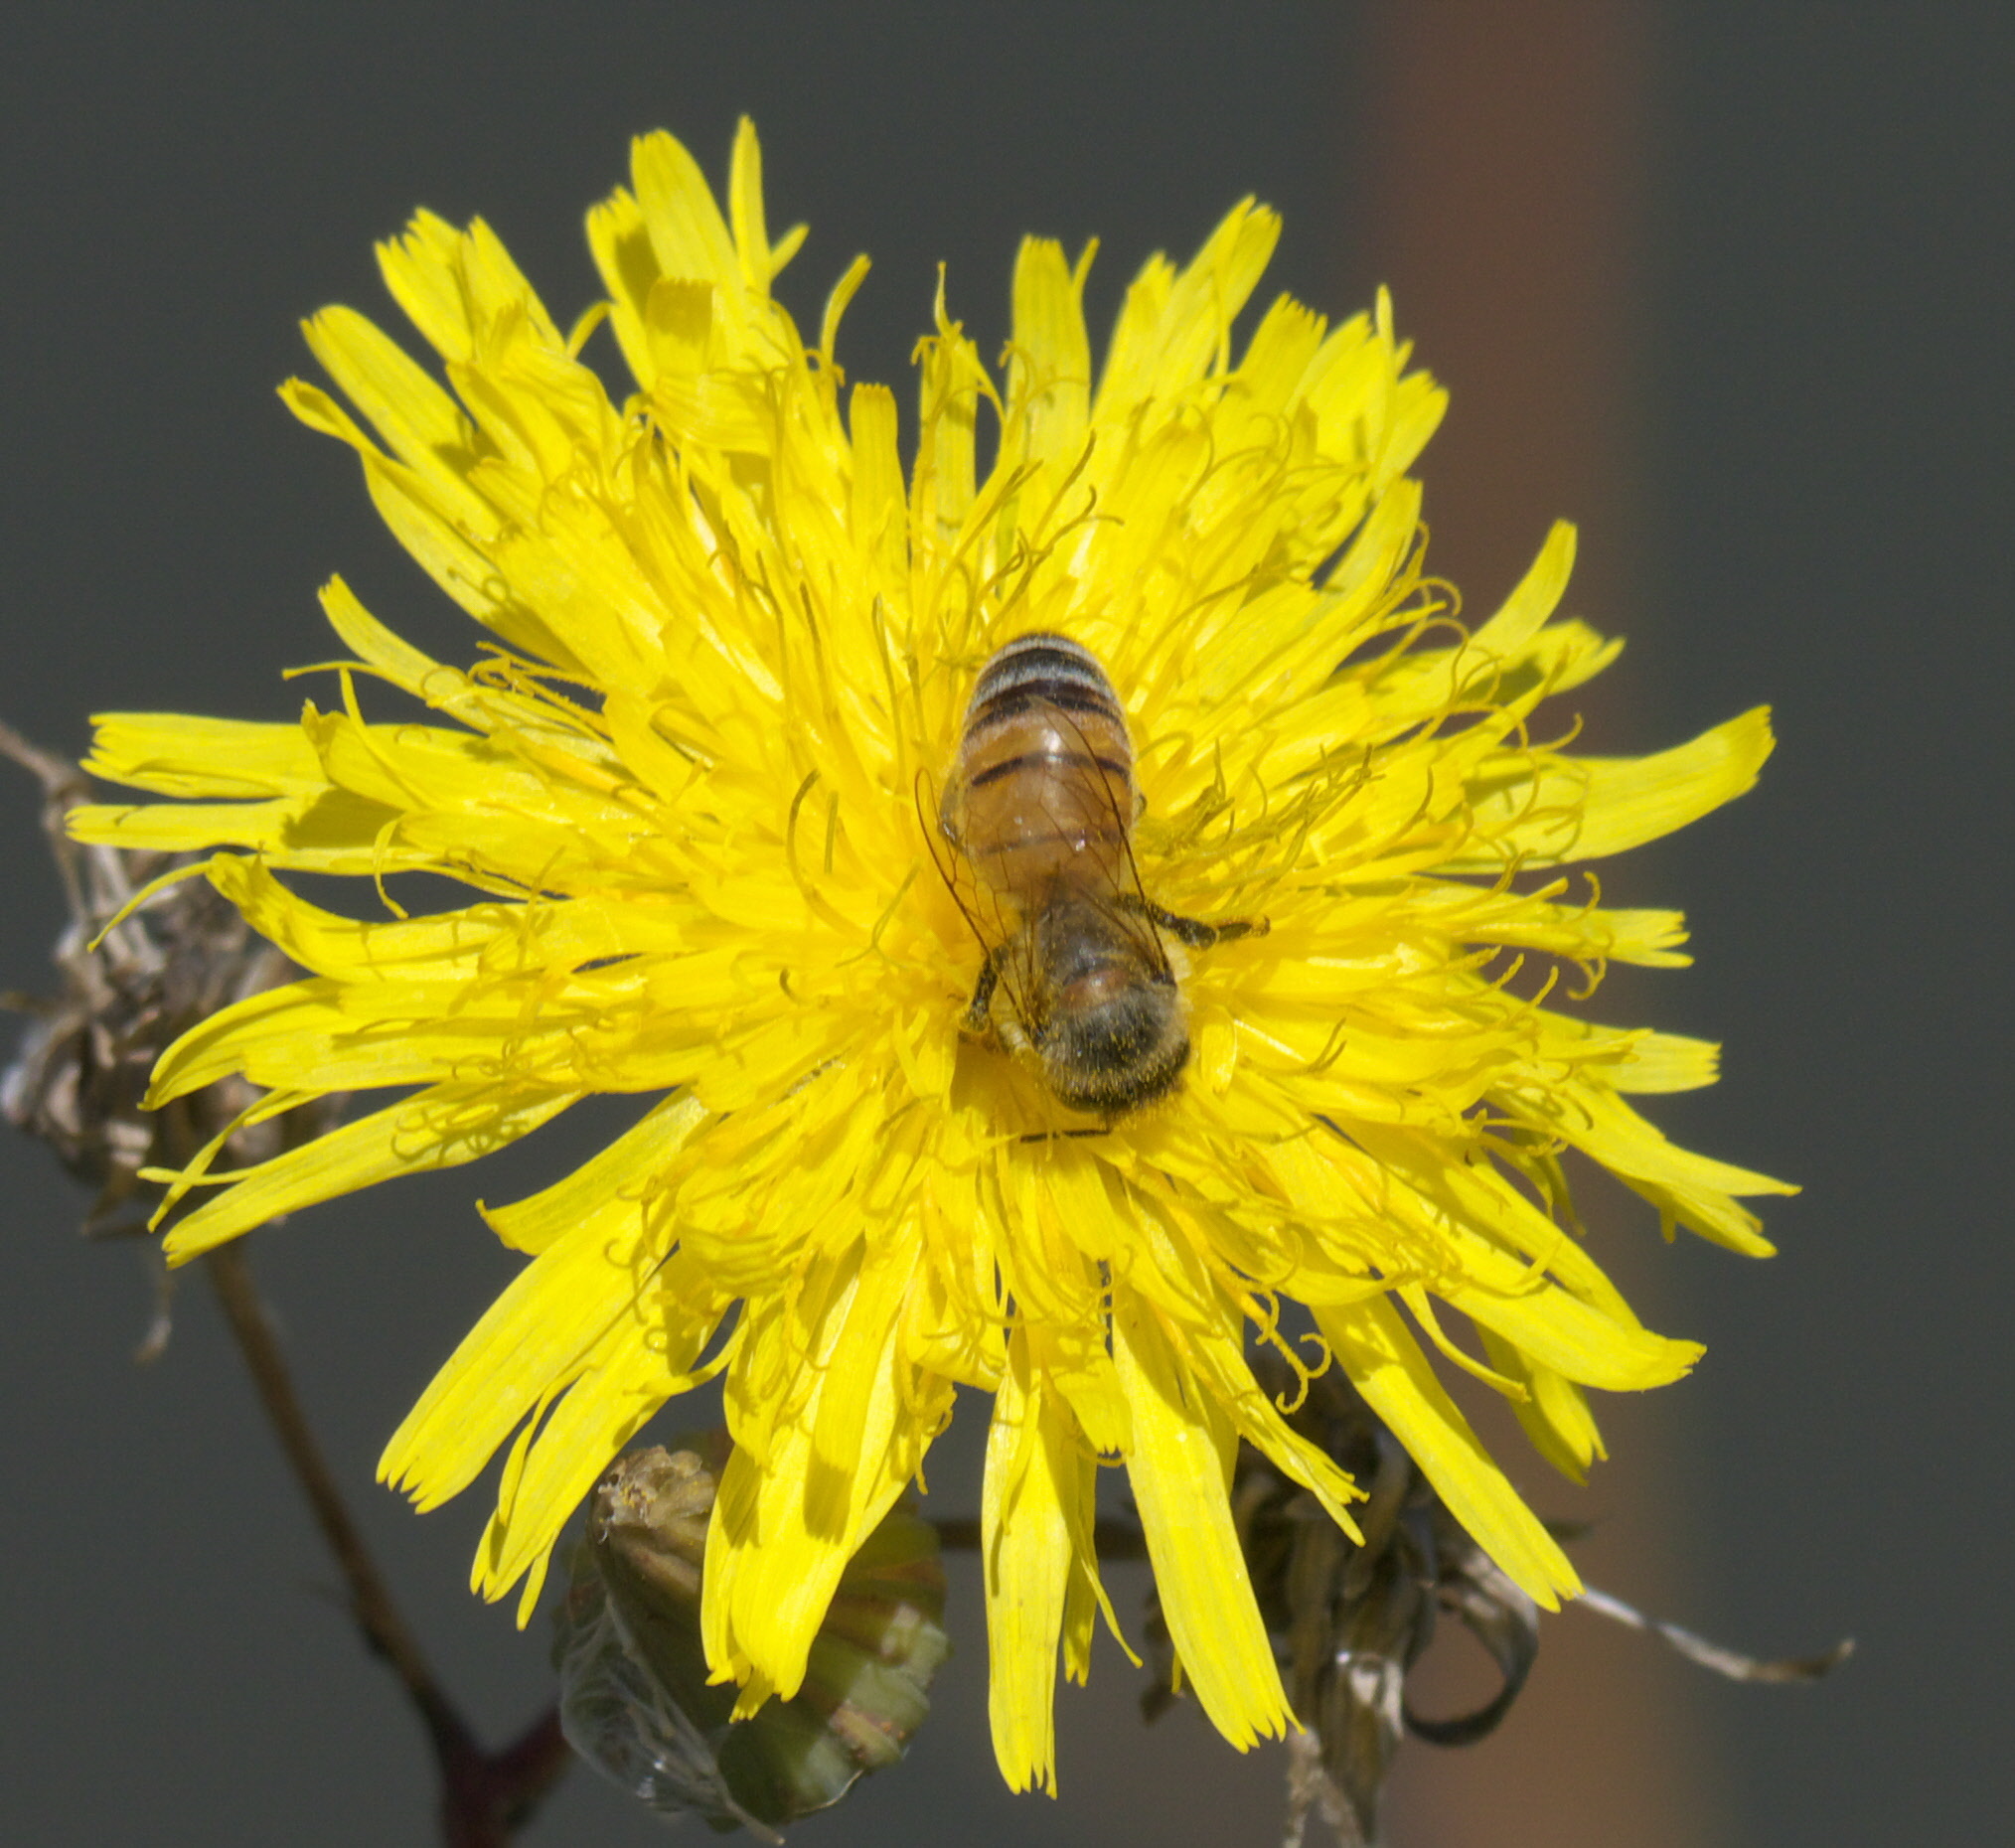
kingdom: Animalia
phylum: Arthropoda
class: Insecta
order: Hymenoptera
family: Apidae
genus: Apis
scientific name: Apis mellifera
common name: Honey bee
